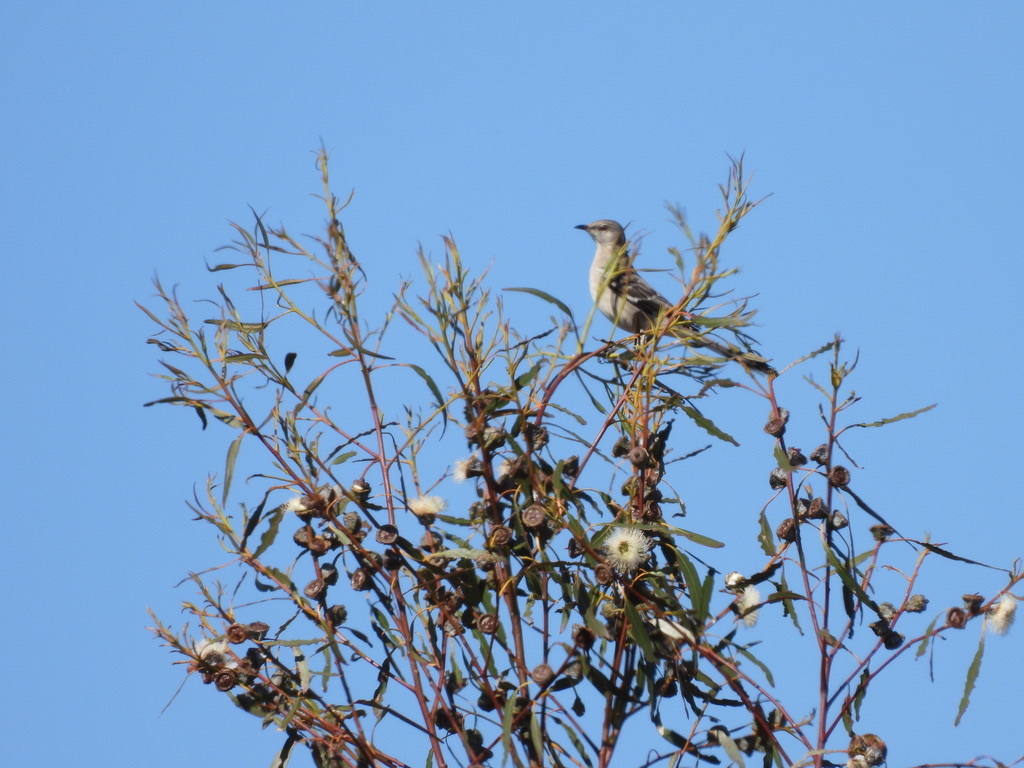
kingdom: Animalia
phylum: Chordata
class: Aves
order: Passeriformes
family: Mimidae
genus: Mimus
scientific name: Mimus polyglottos
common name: Northern mockingbird
